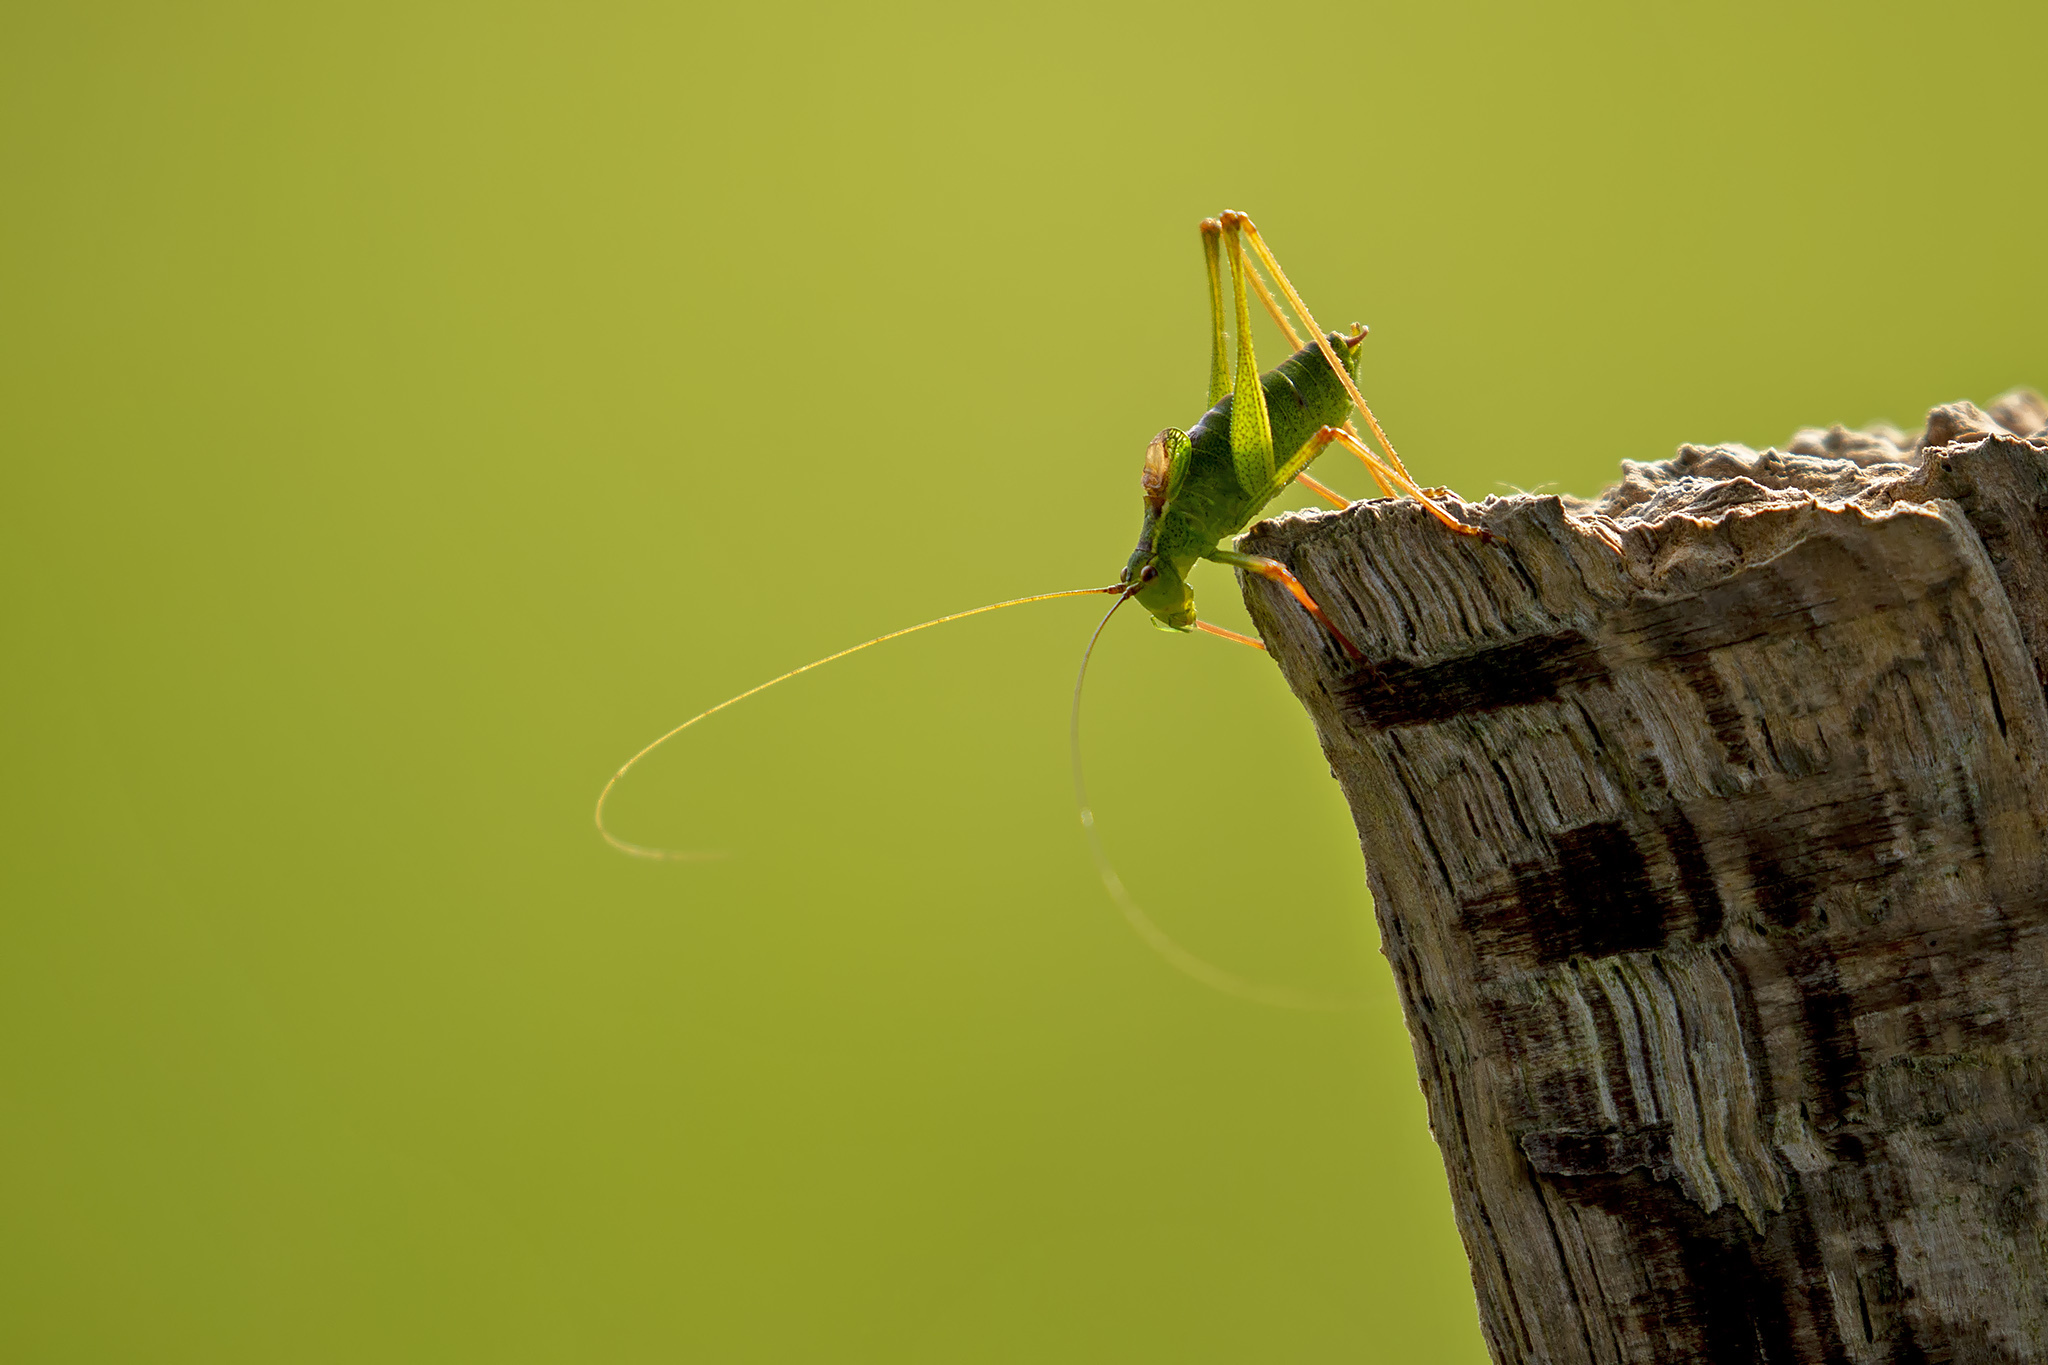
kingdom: Animalia
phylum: Arthropoda
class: Insecta
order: Orthoptera
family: Tettigoniidae
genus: Leptophyes
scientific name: Leptophyes punctatissima
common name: Speckled bush-cricket
